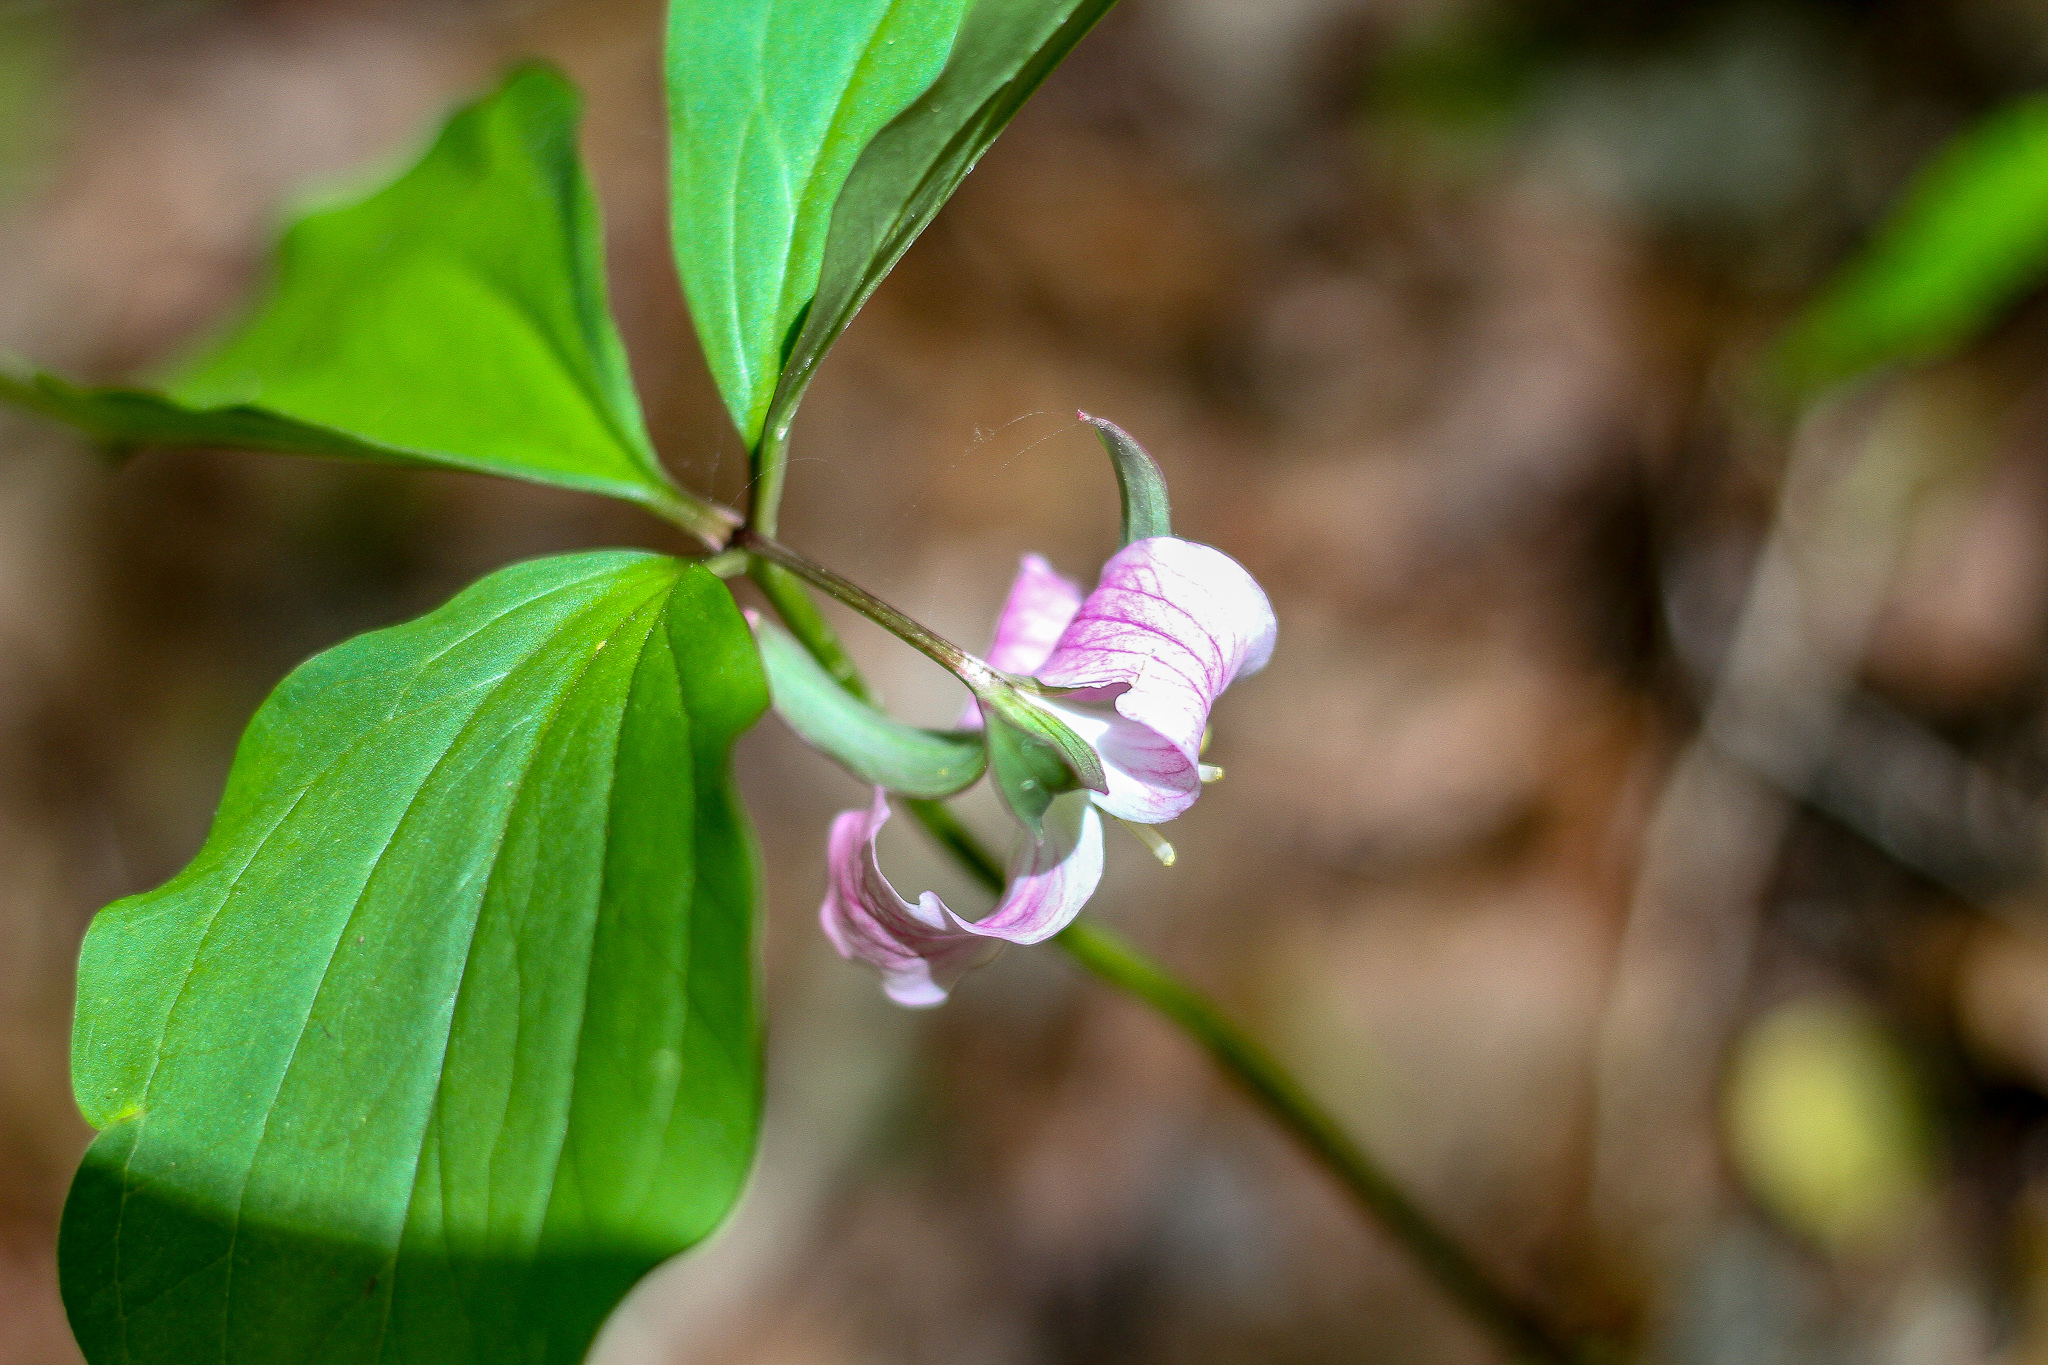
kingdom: Plantae
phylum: Tracheophyta
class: Liliopsida
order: Liliales
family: Melanthiaceae
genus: Trillium
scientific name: Trillium catesbaei
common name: Bashful trillium
